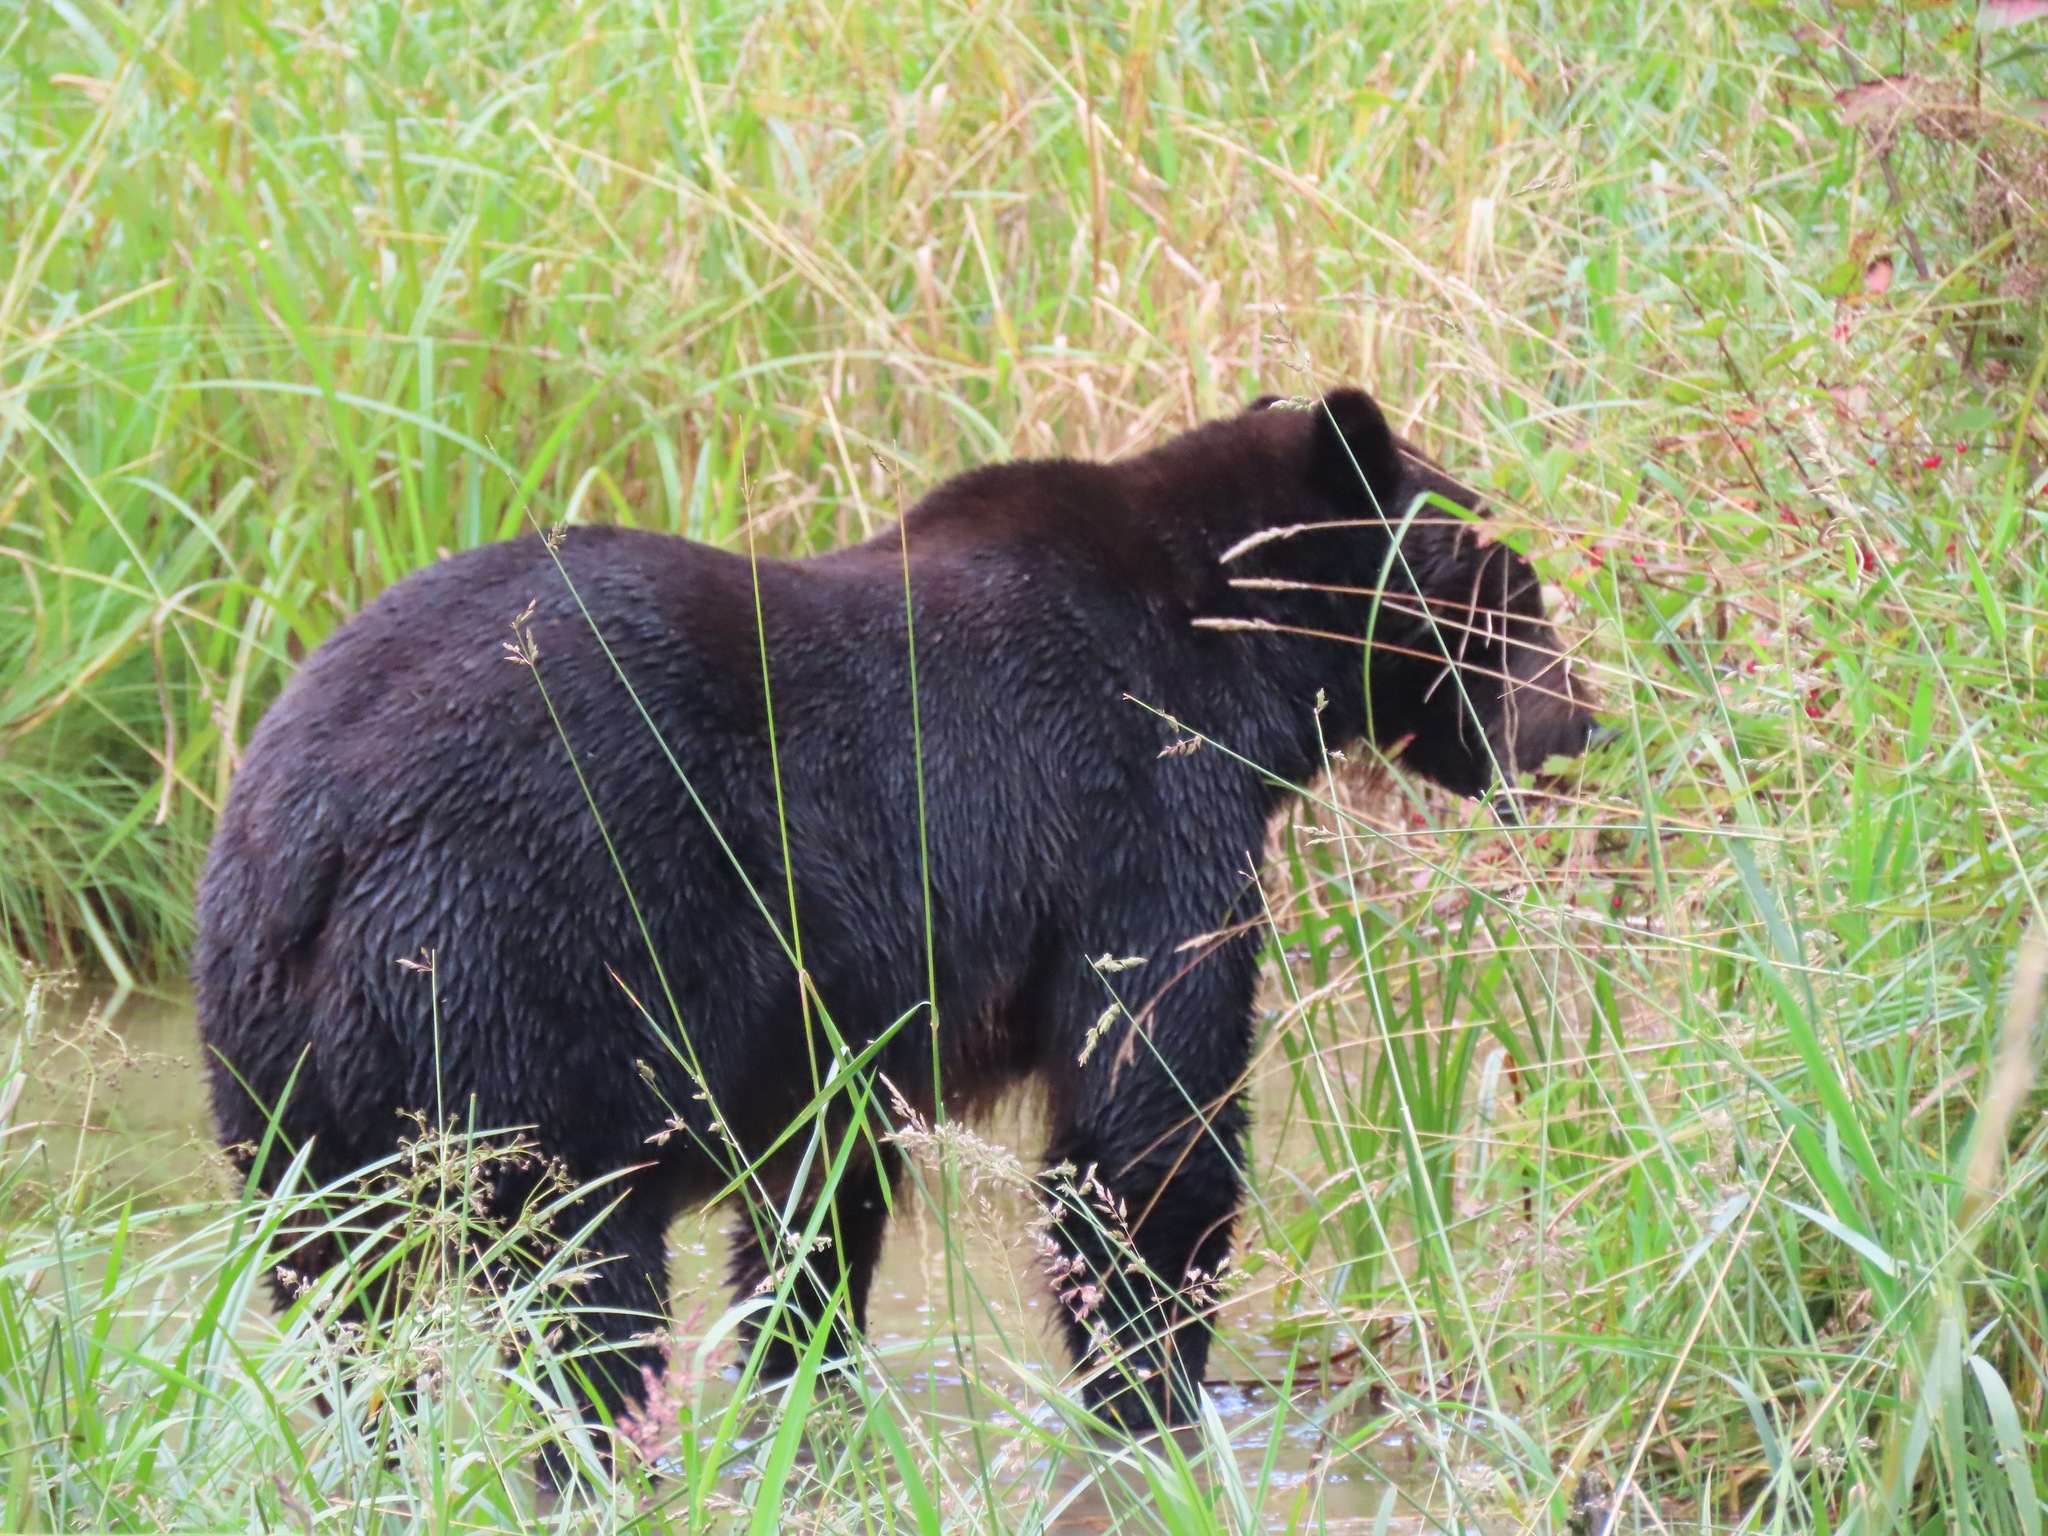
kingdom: Animalia
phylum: Chordata
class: Mammalia
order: Carnivora
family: Ursidae
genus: Ursus
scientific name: Ursus arctos
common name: Brown bear
